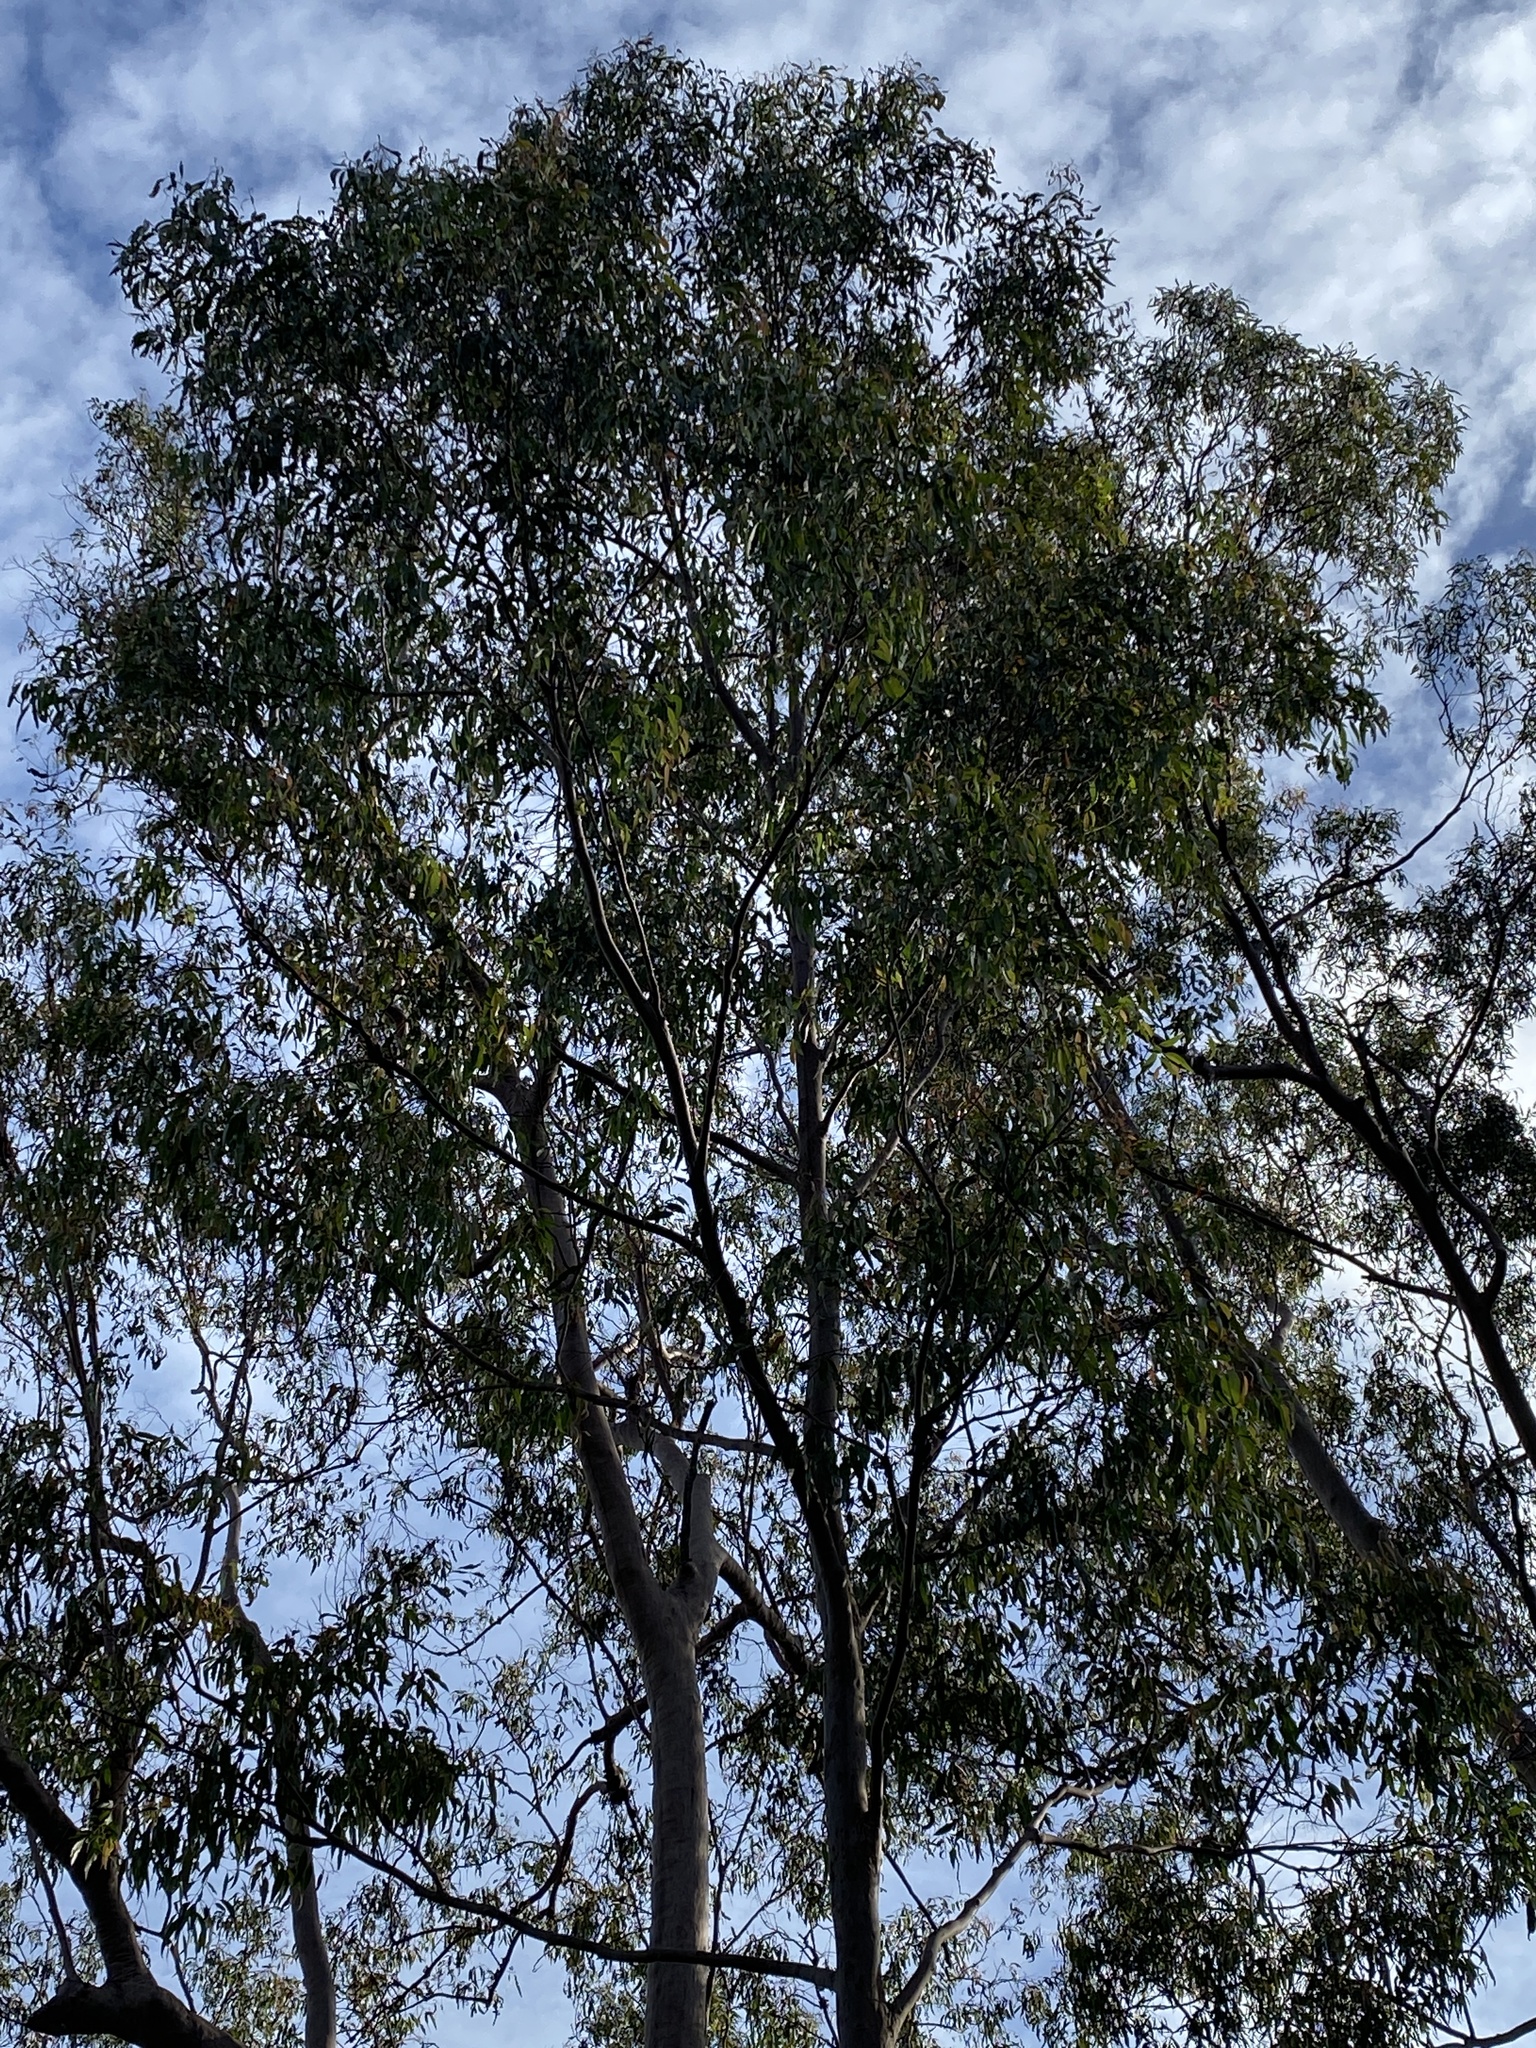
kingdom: Plantae
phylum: Tracheophyta
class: Magnoliopsida
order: Myrtales
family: Myrtaceae
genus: Corymbia
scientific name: Corymbia citriodora
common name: Lemonscented gum
